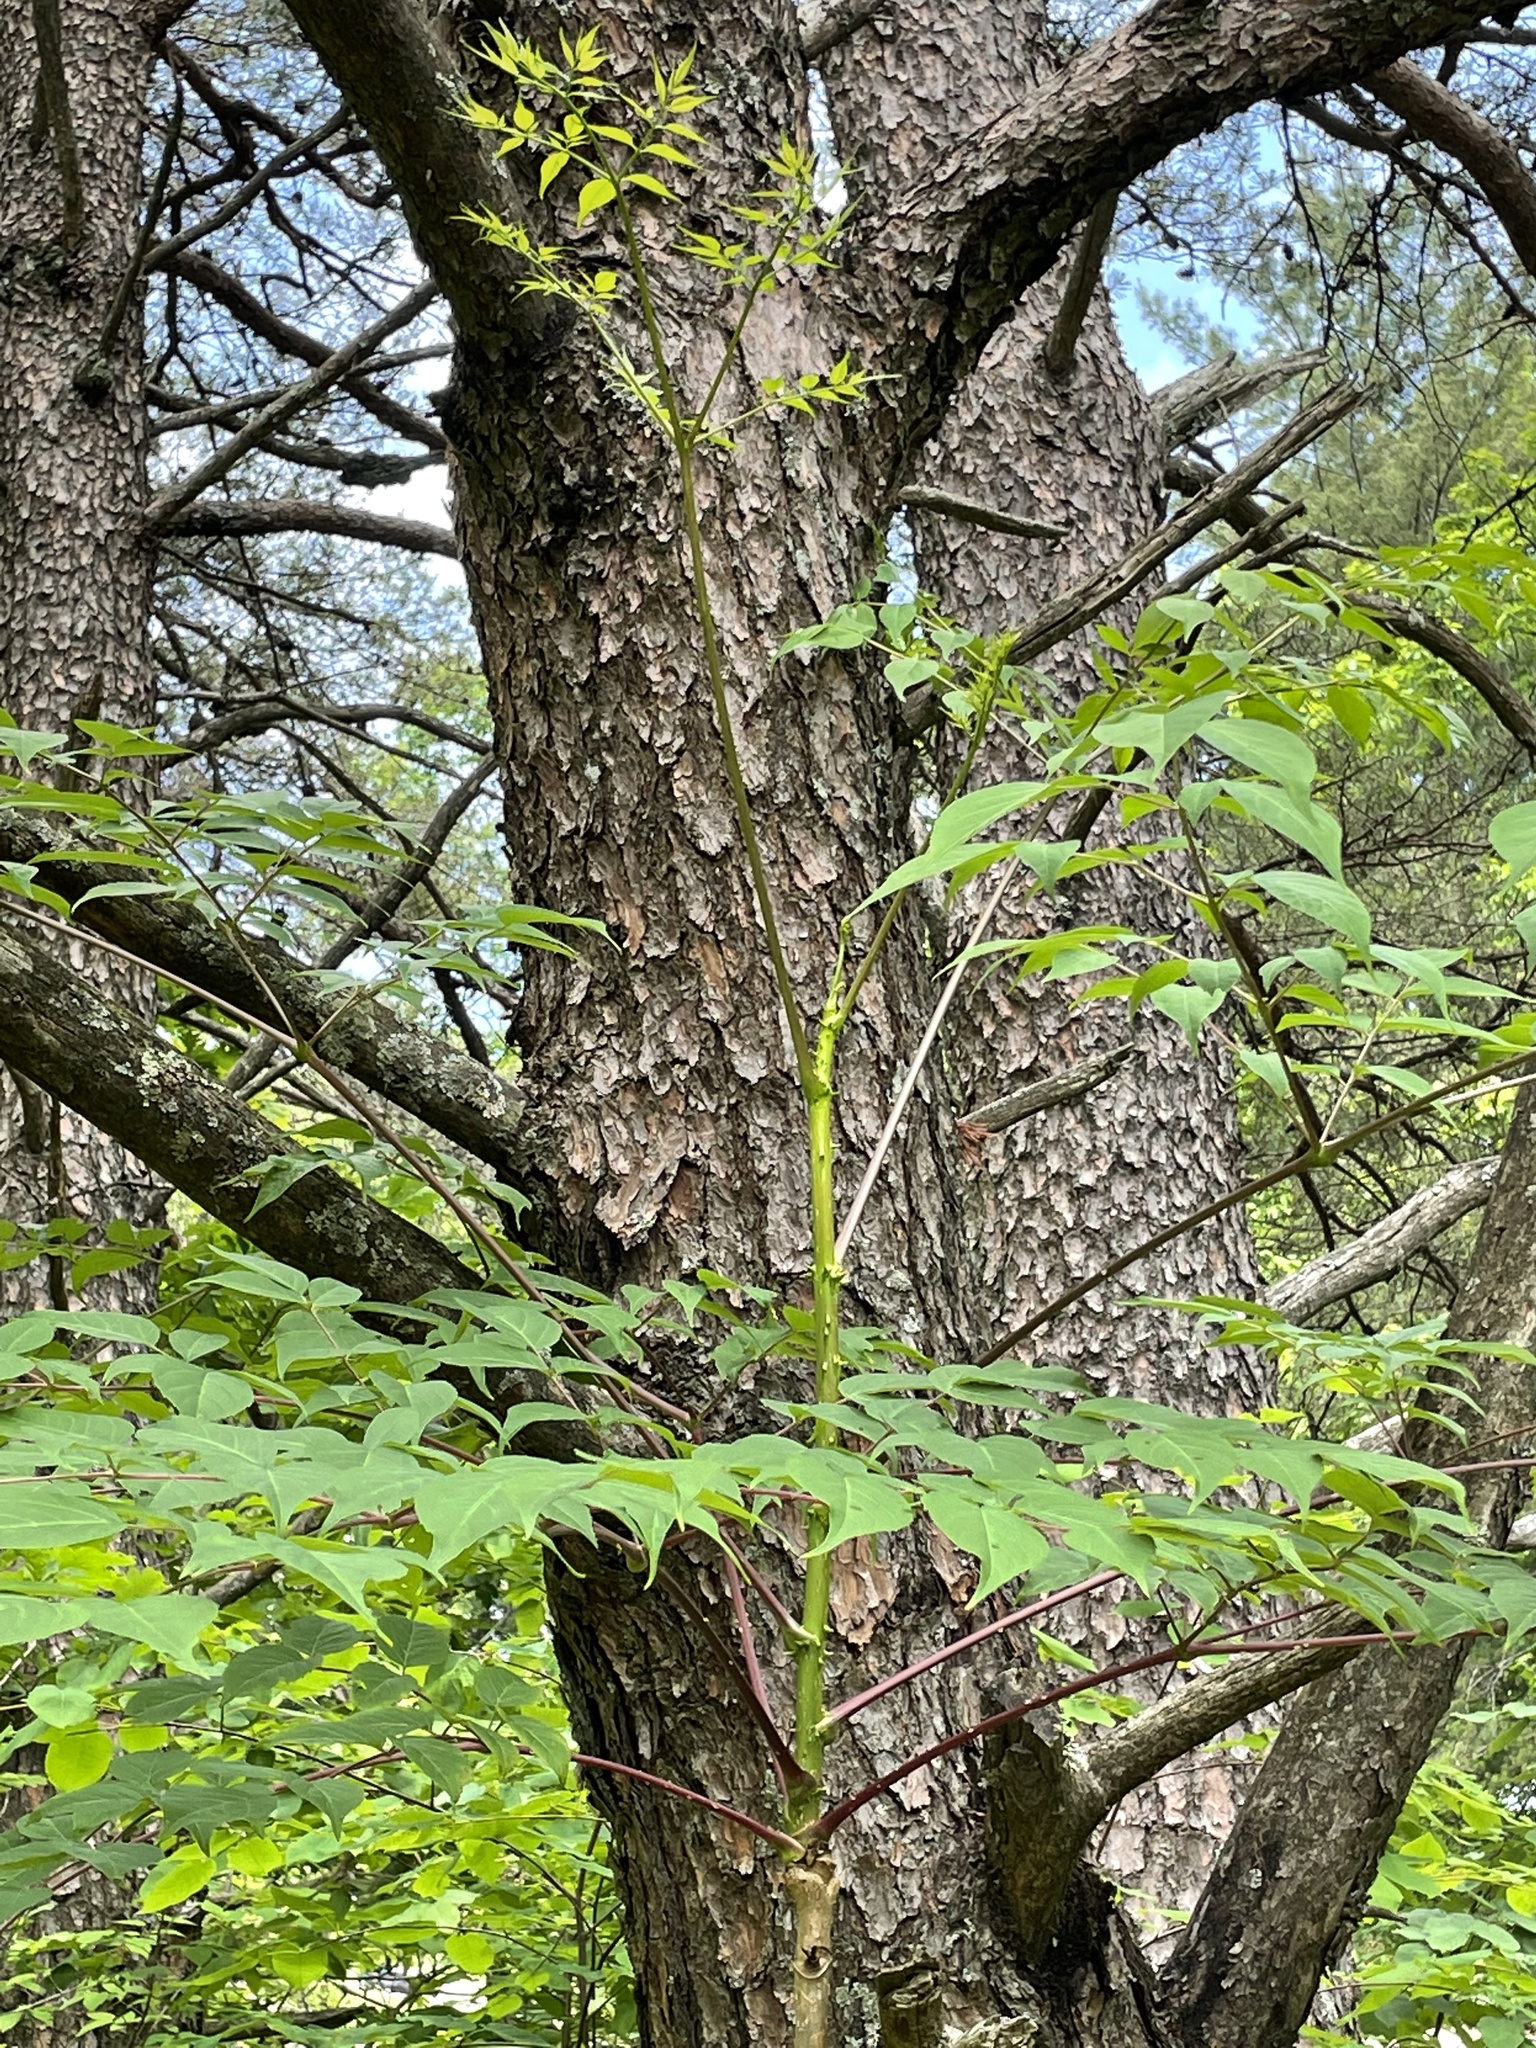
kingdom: Plantae
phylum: Tracheophyta
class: Magnoliopsida
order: Apiales
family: Araliaceae
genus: Aralia
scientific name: Aralia spinosa
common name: Hercules'-club
